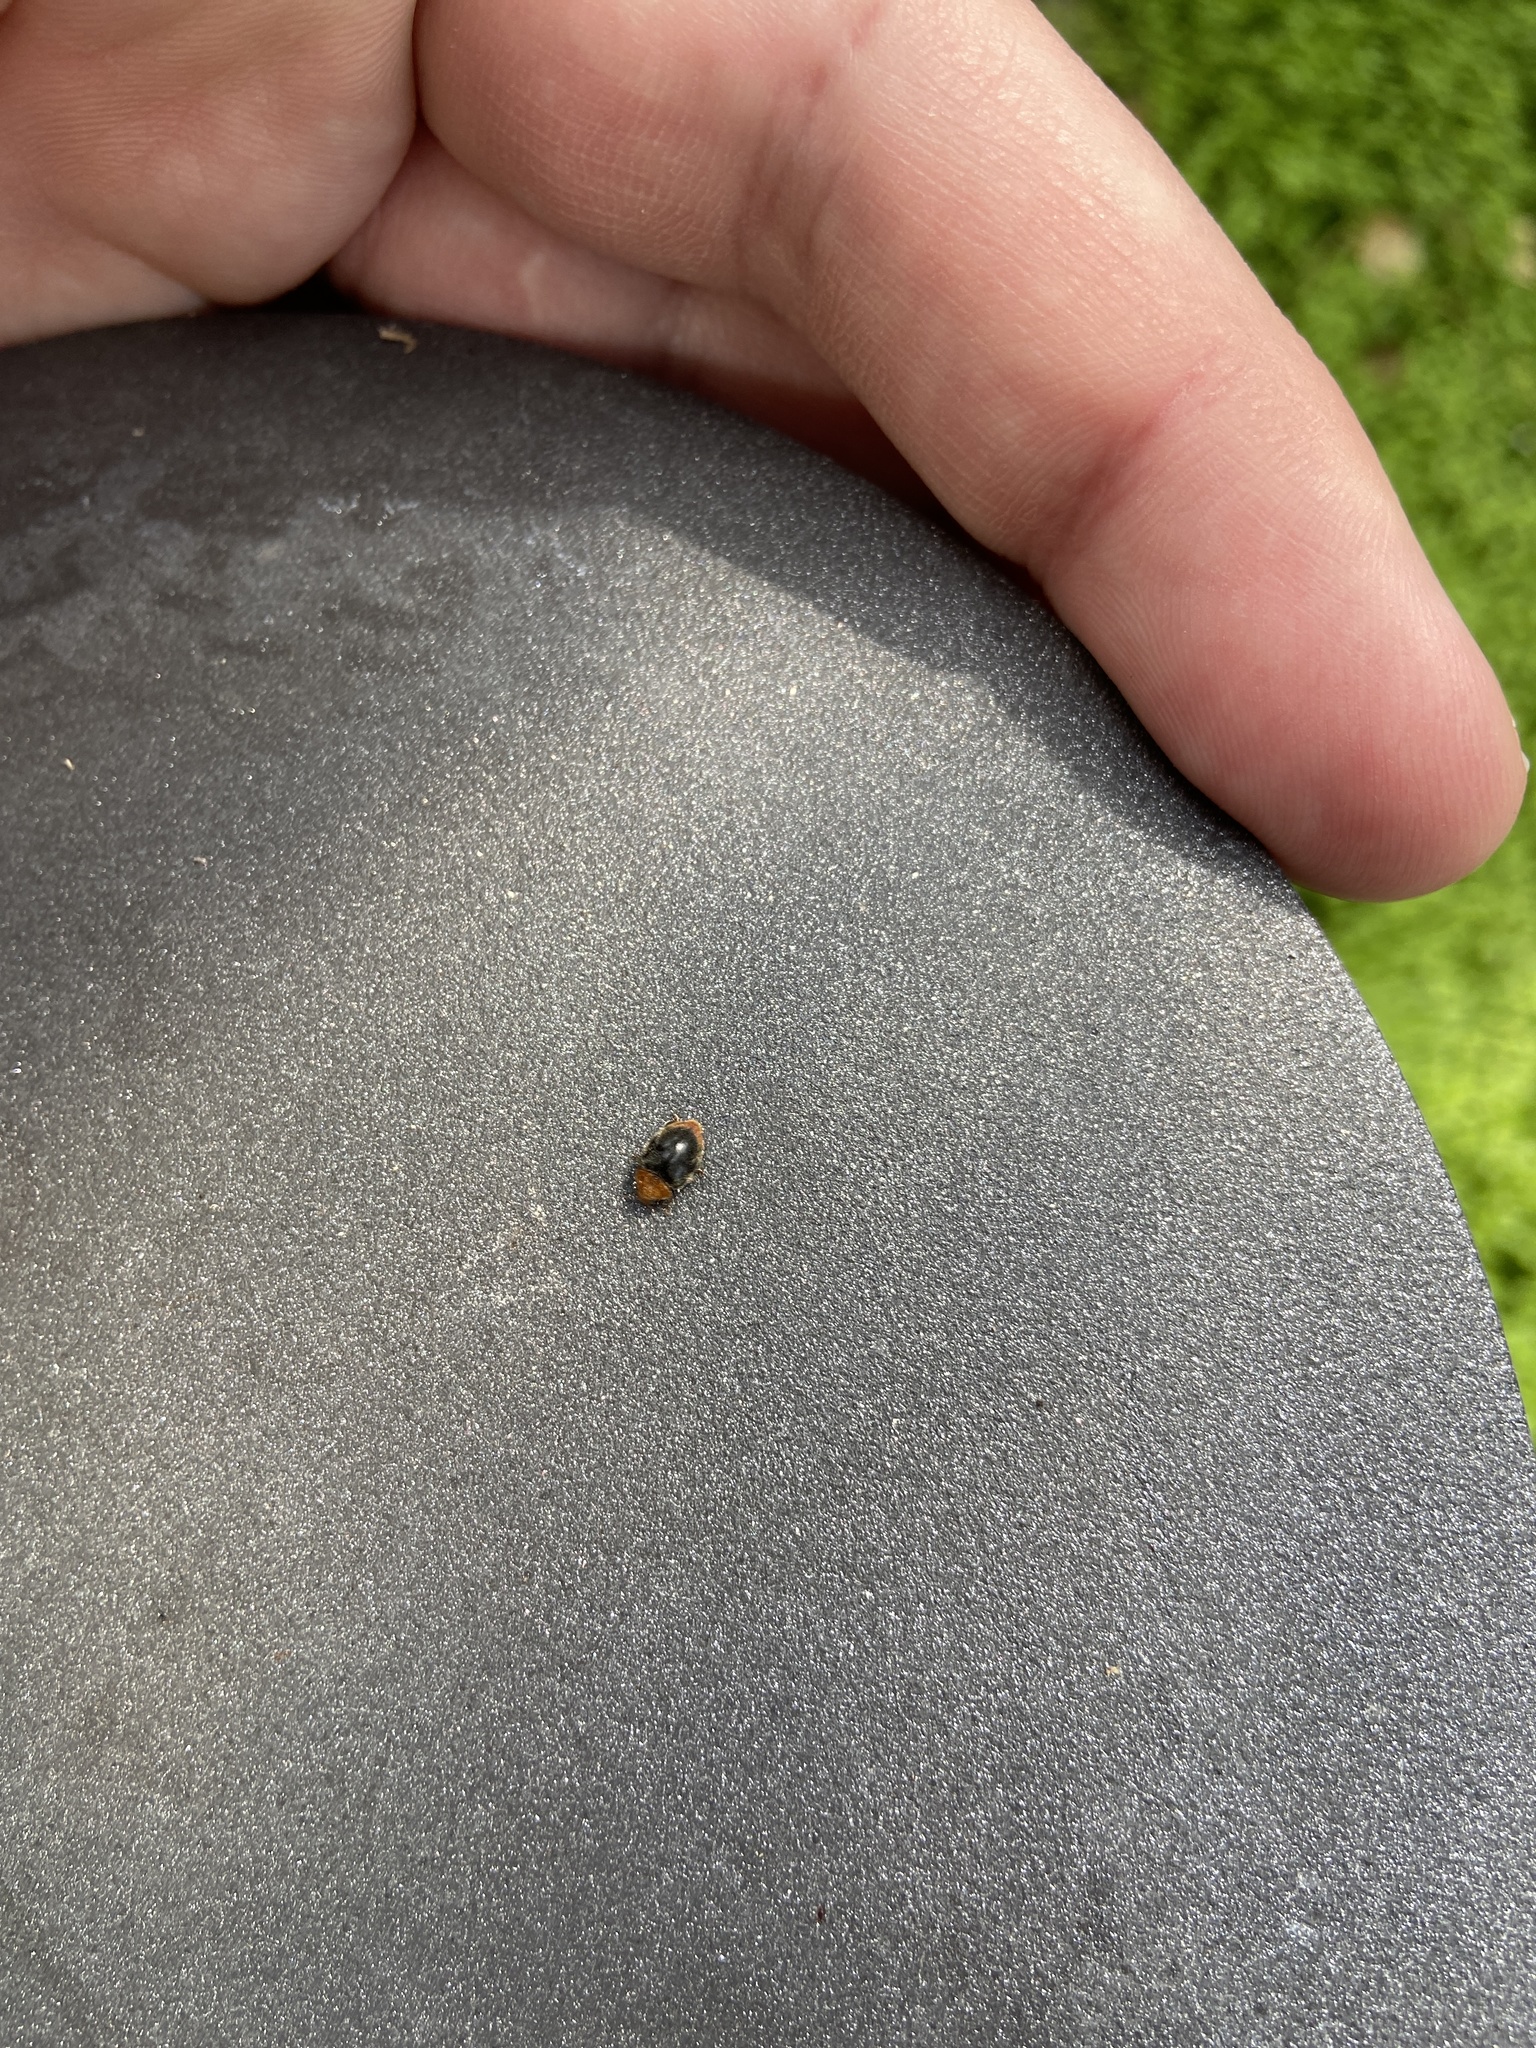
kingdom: Animalia
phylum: Arthropoda
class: Insecta
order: Coleoptera
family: Coccinellidae
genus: Cryptolaemus
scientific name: Cryptolaemus montrouzieri
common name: Mealybug destroyer
